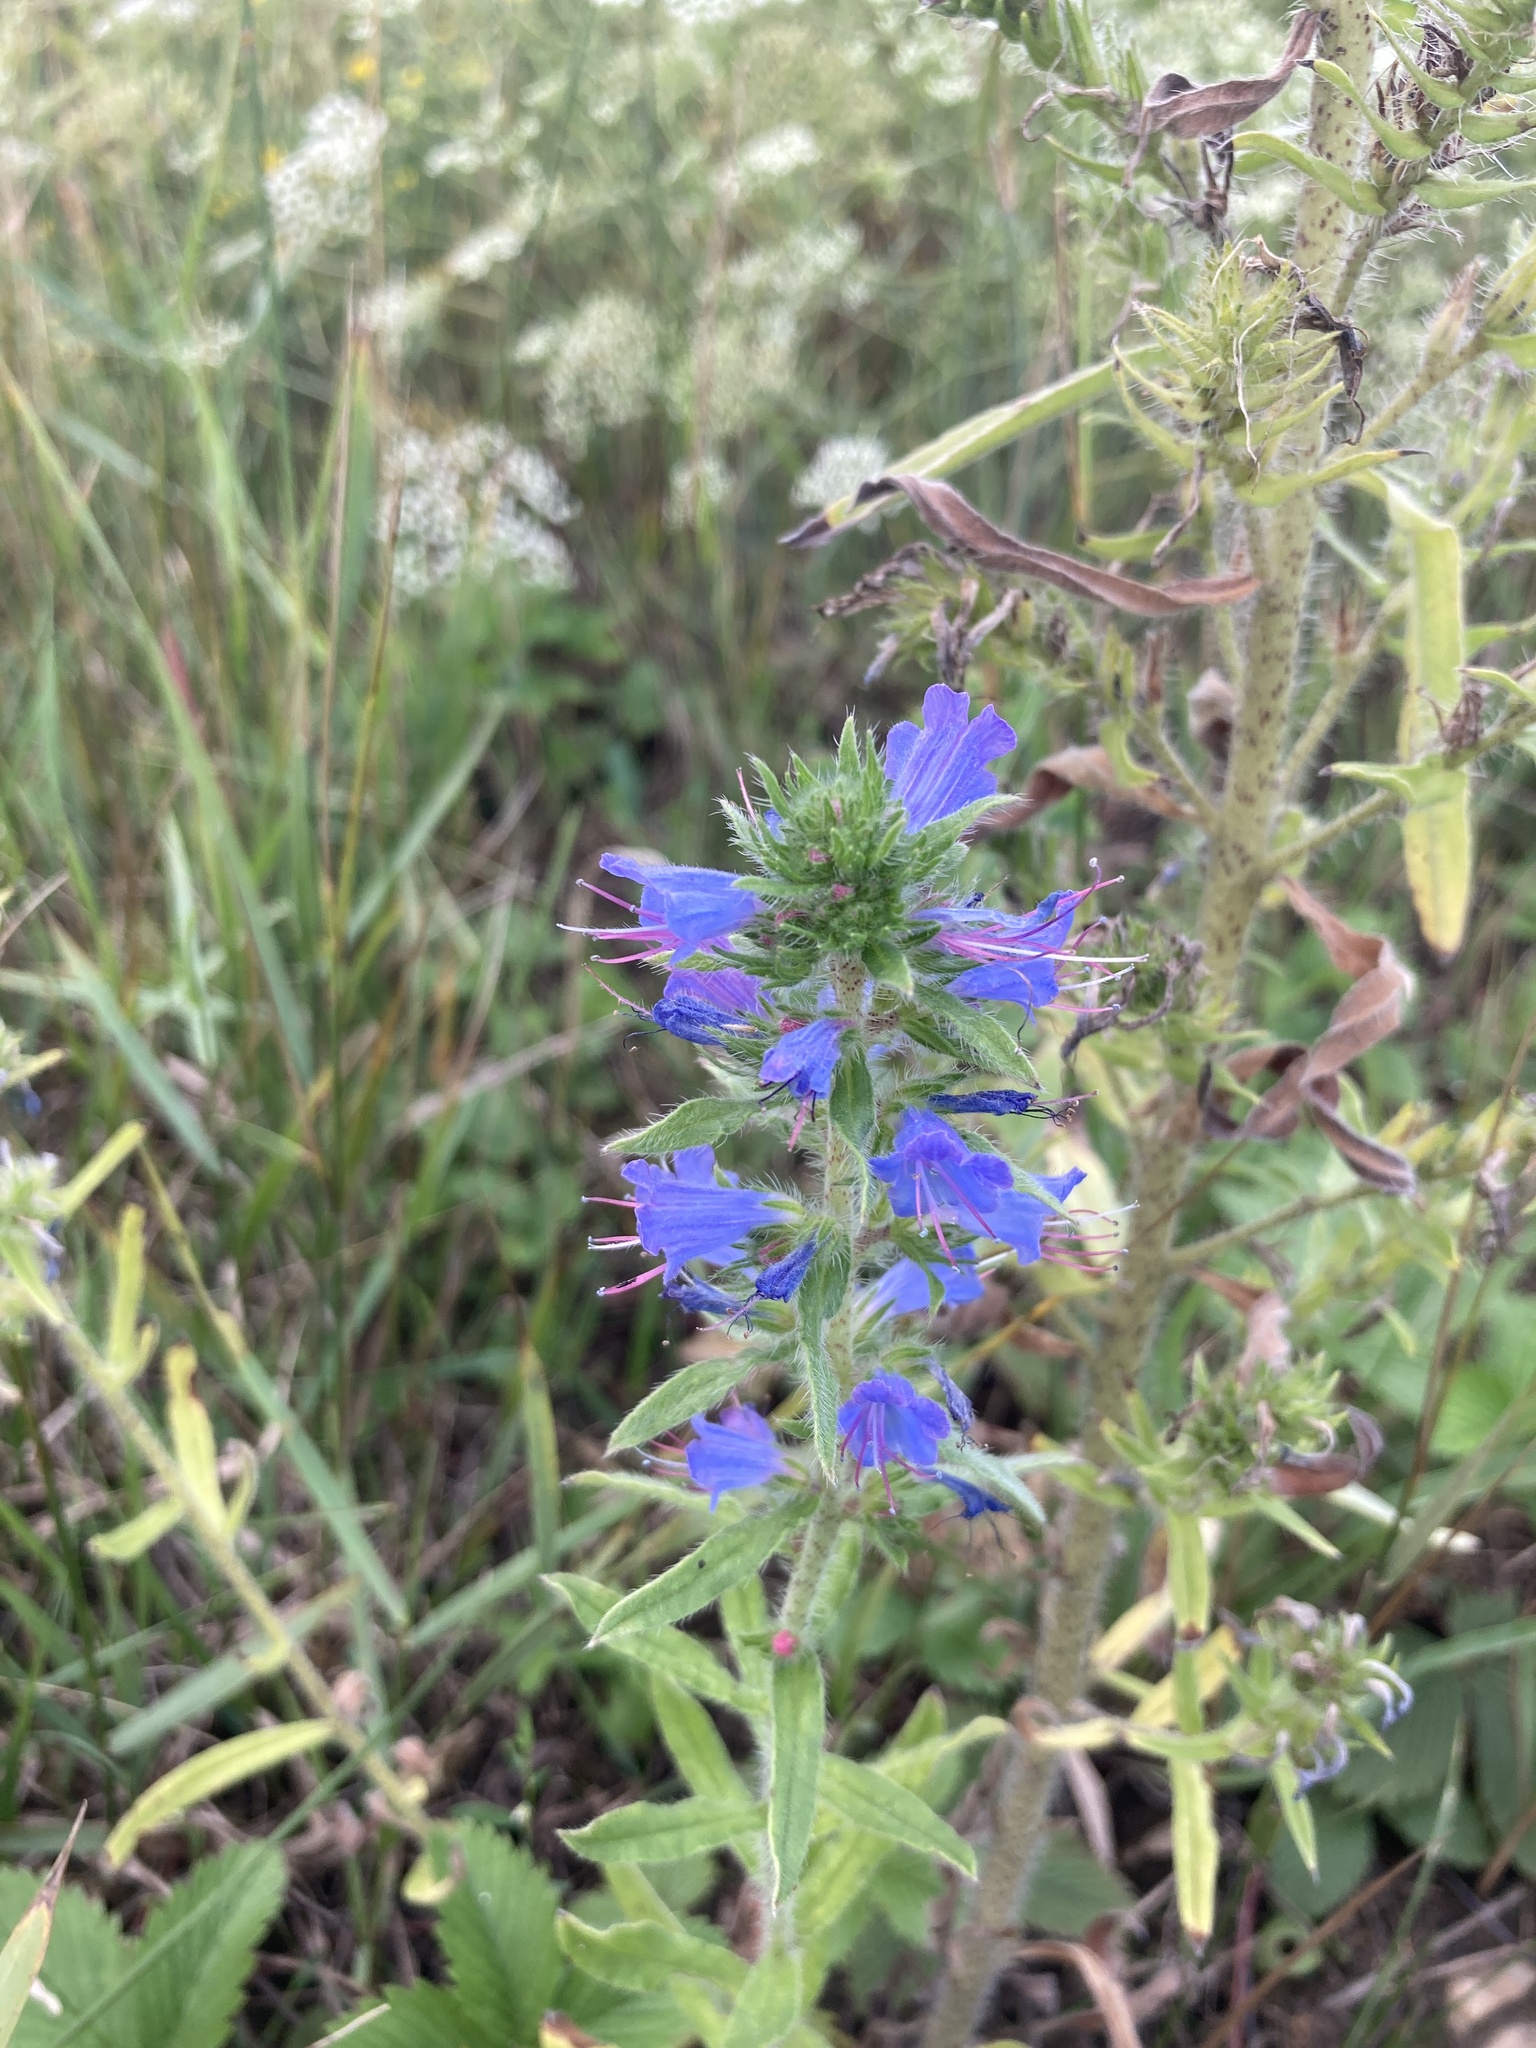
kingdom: Plantae
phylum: Tracheophyta
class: Magnoliopsida
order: Boraginales
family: Boraginaceae
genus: Echium
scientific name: Echium vulgare
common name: Common viper's bugloss
